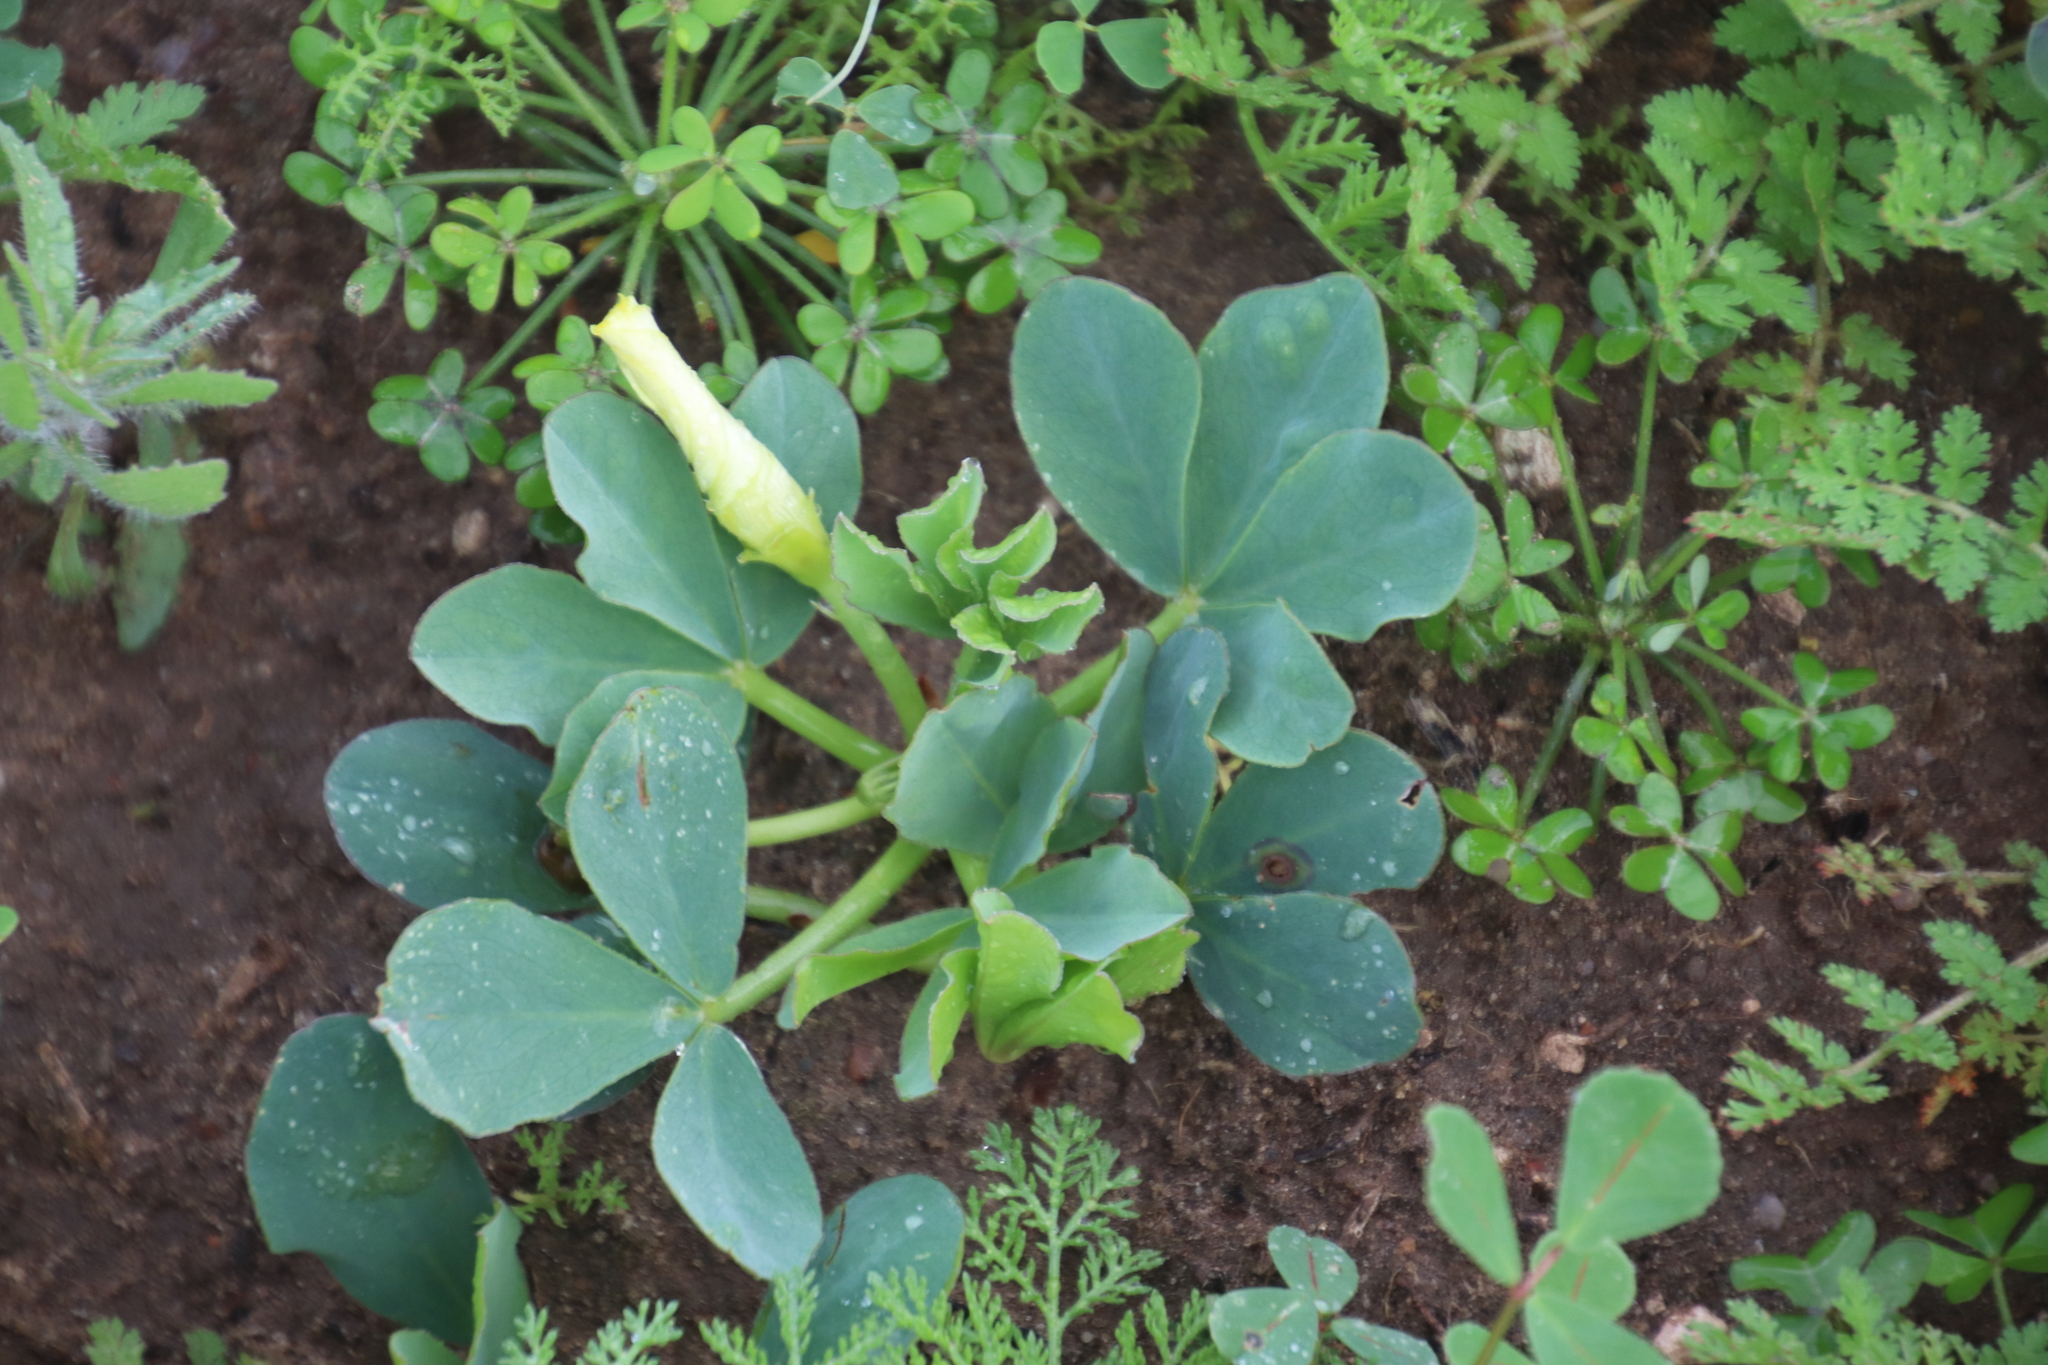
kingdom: Plantae
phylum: Tracheophyta
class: Magnoliopsida
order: Oxalidales
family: Oxalidaceae
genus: Oxalis
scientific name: Oxalis flava
